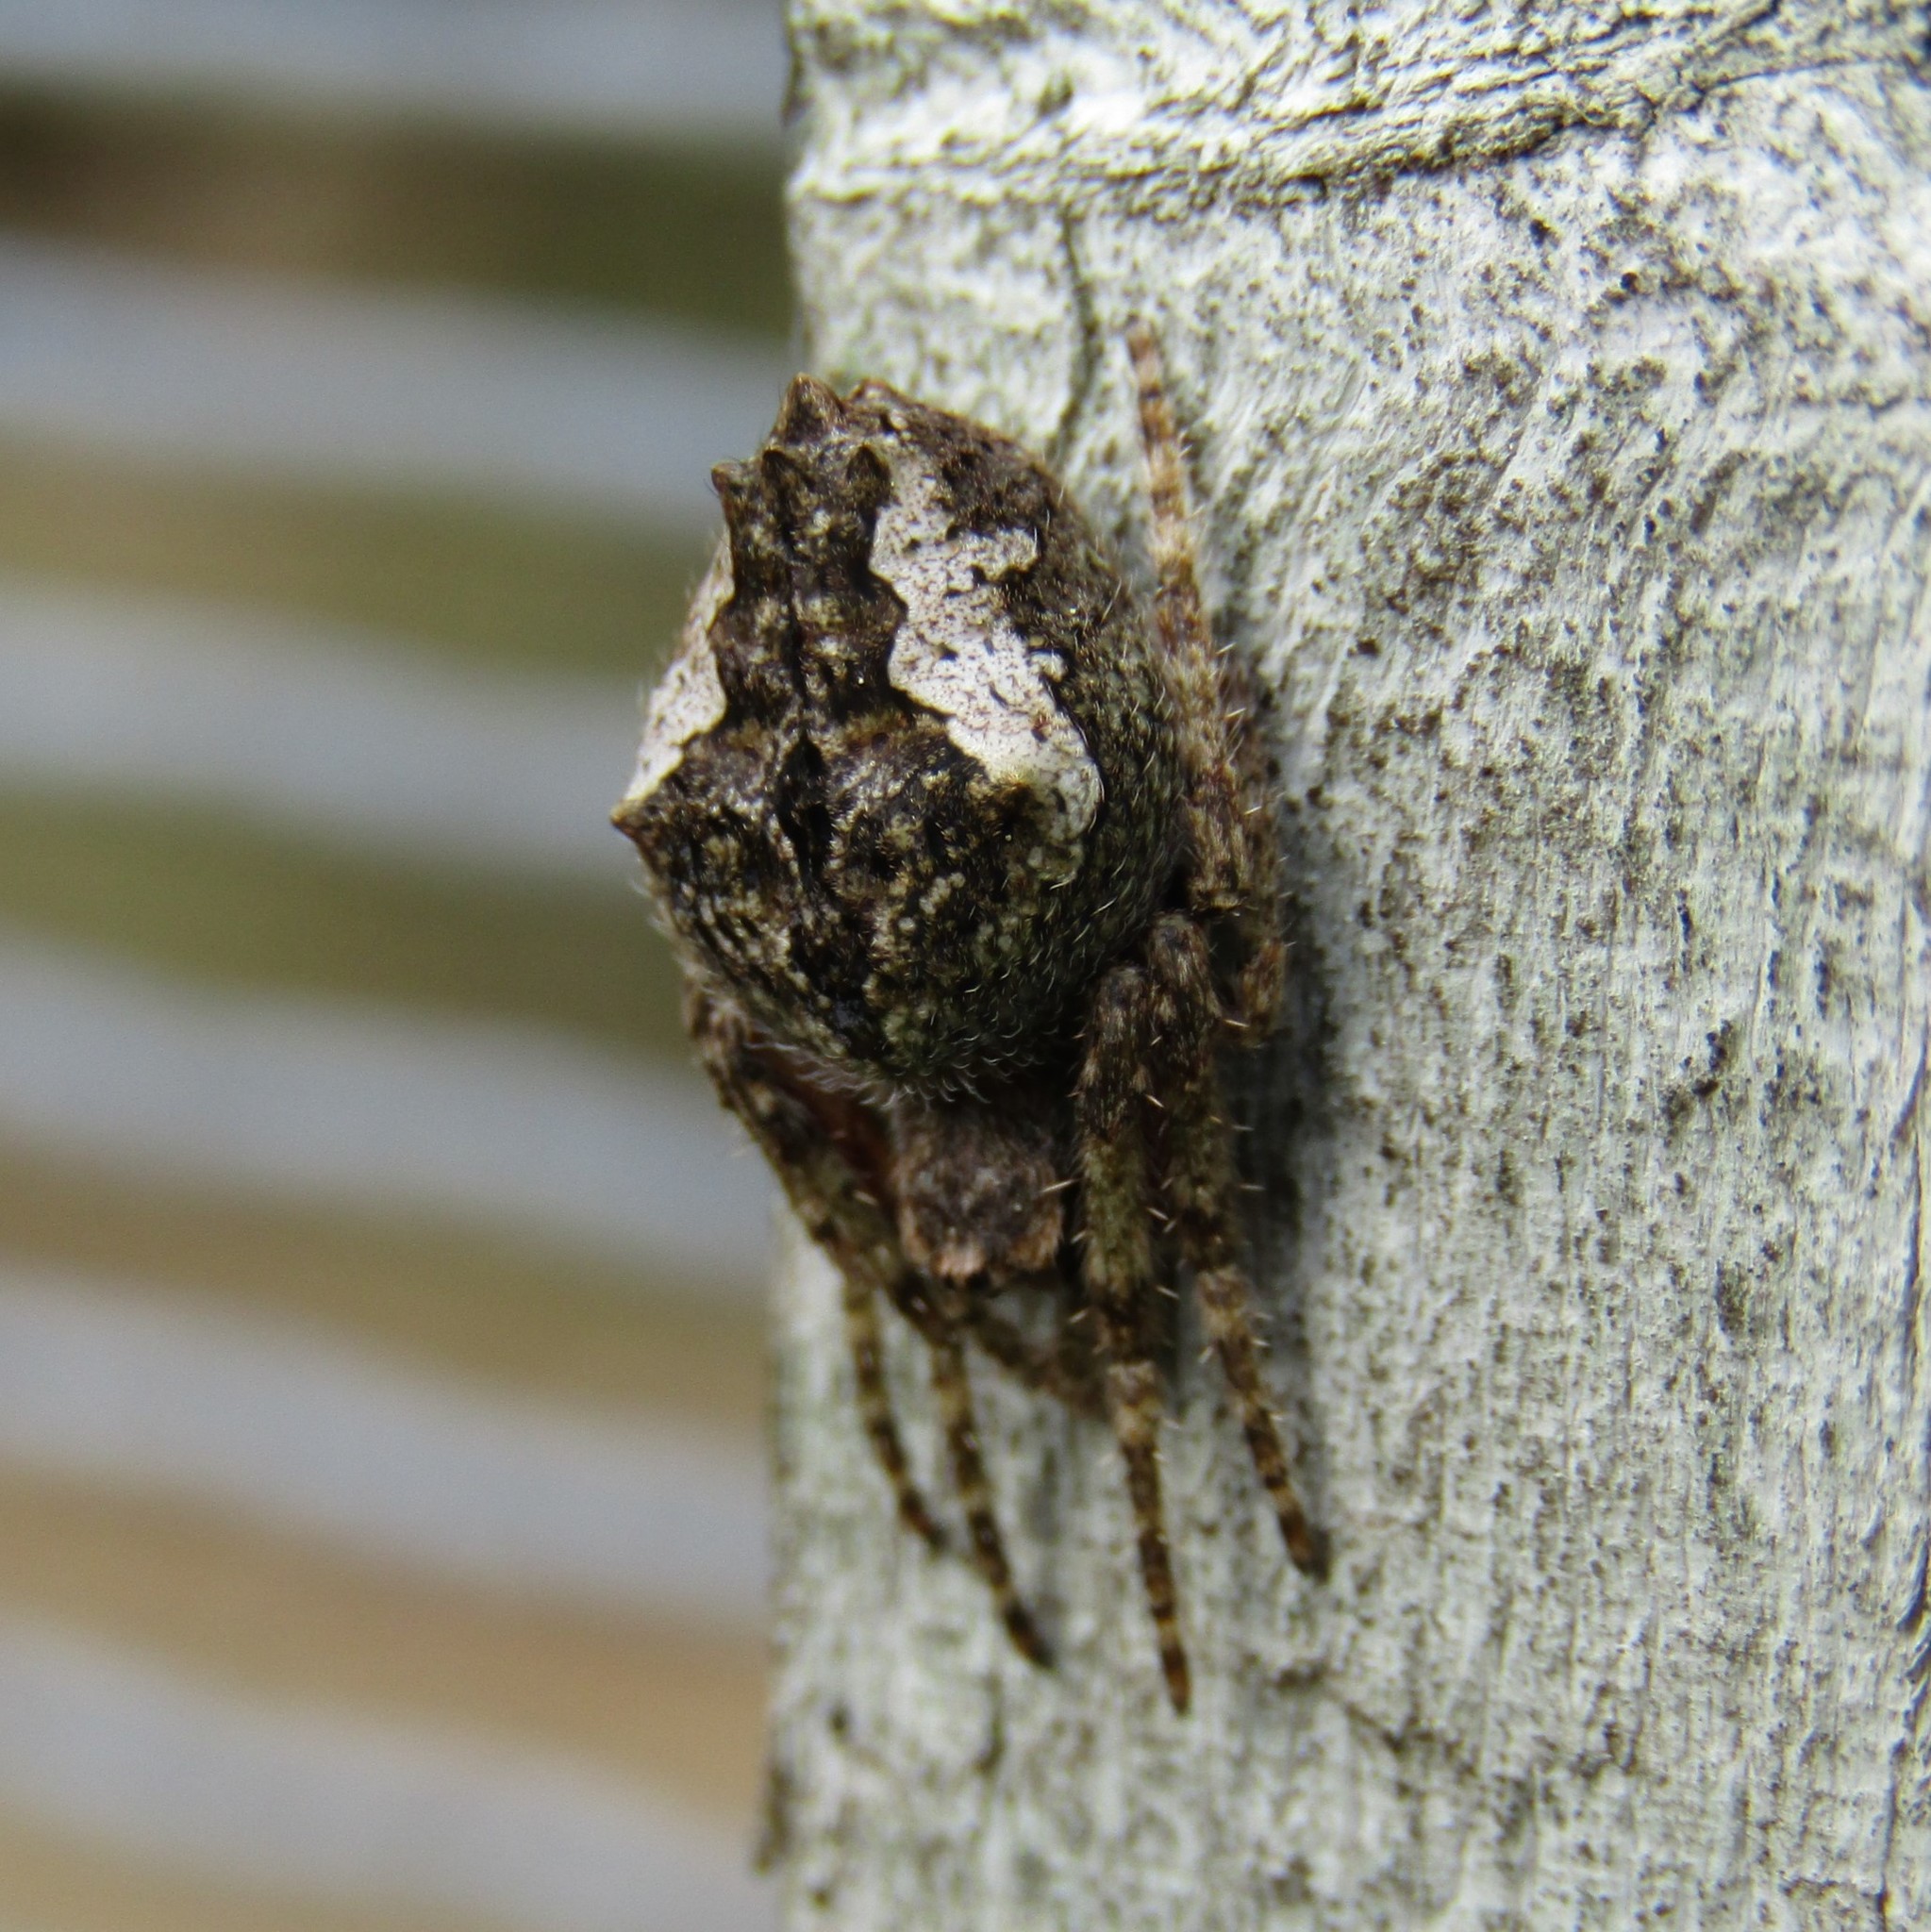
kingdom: Animalia
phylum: Arthropoda
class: Arachnida
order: Araneae
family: Araneidae
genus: Eriophora
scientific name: Eriophora pustulosa
